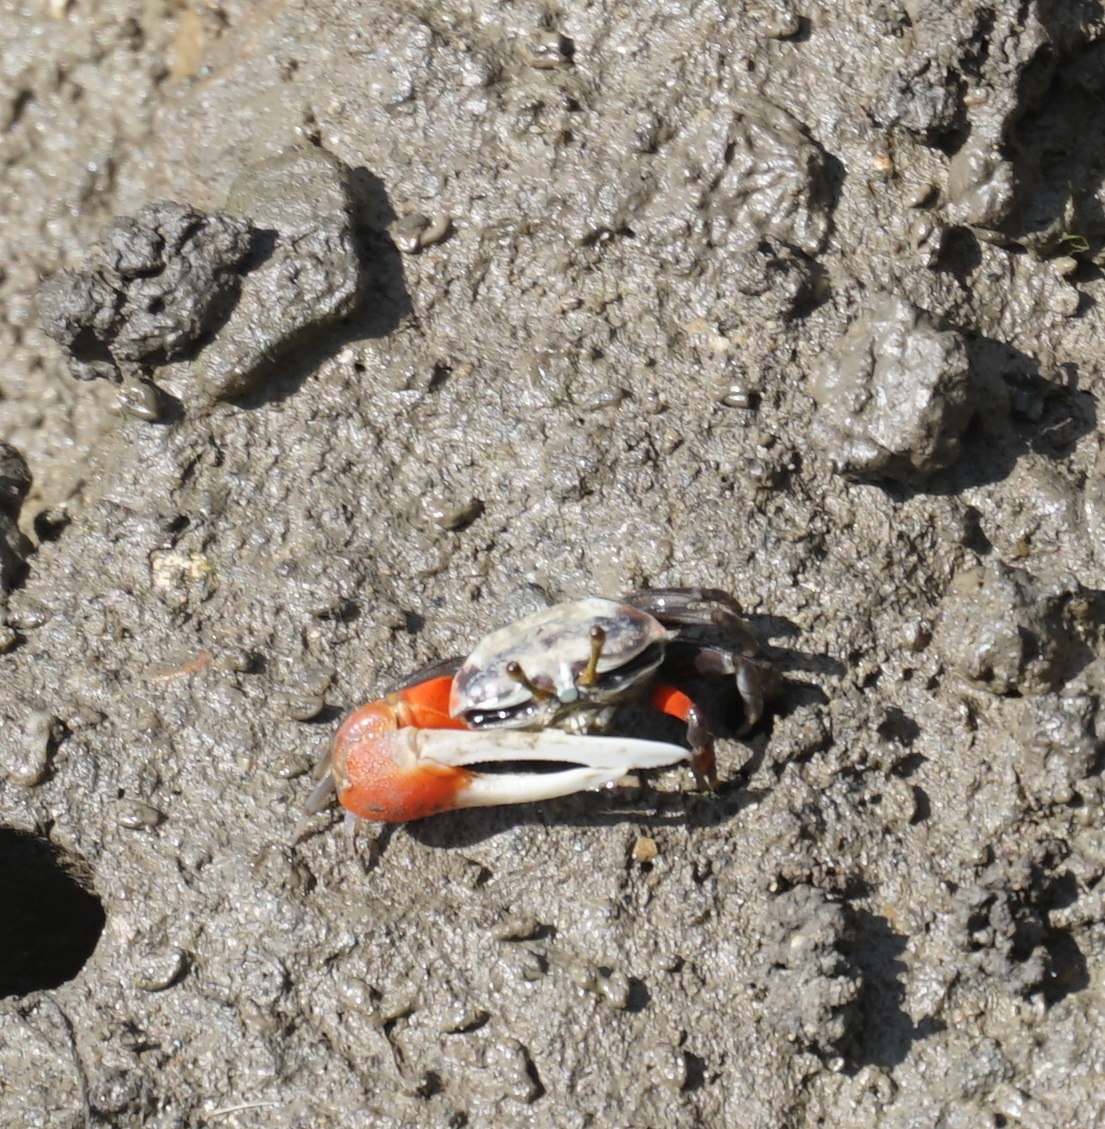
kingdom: Animalia
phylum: Arthropoda
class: Malacostraca
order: Decapoda
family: Ocypodidae
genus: Tubuca
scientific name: Tubuca signata
